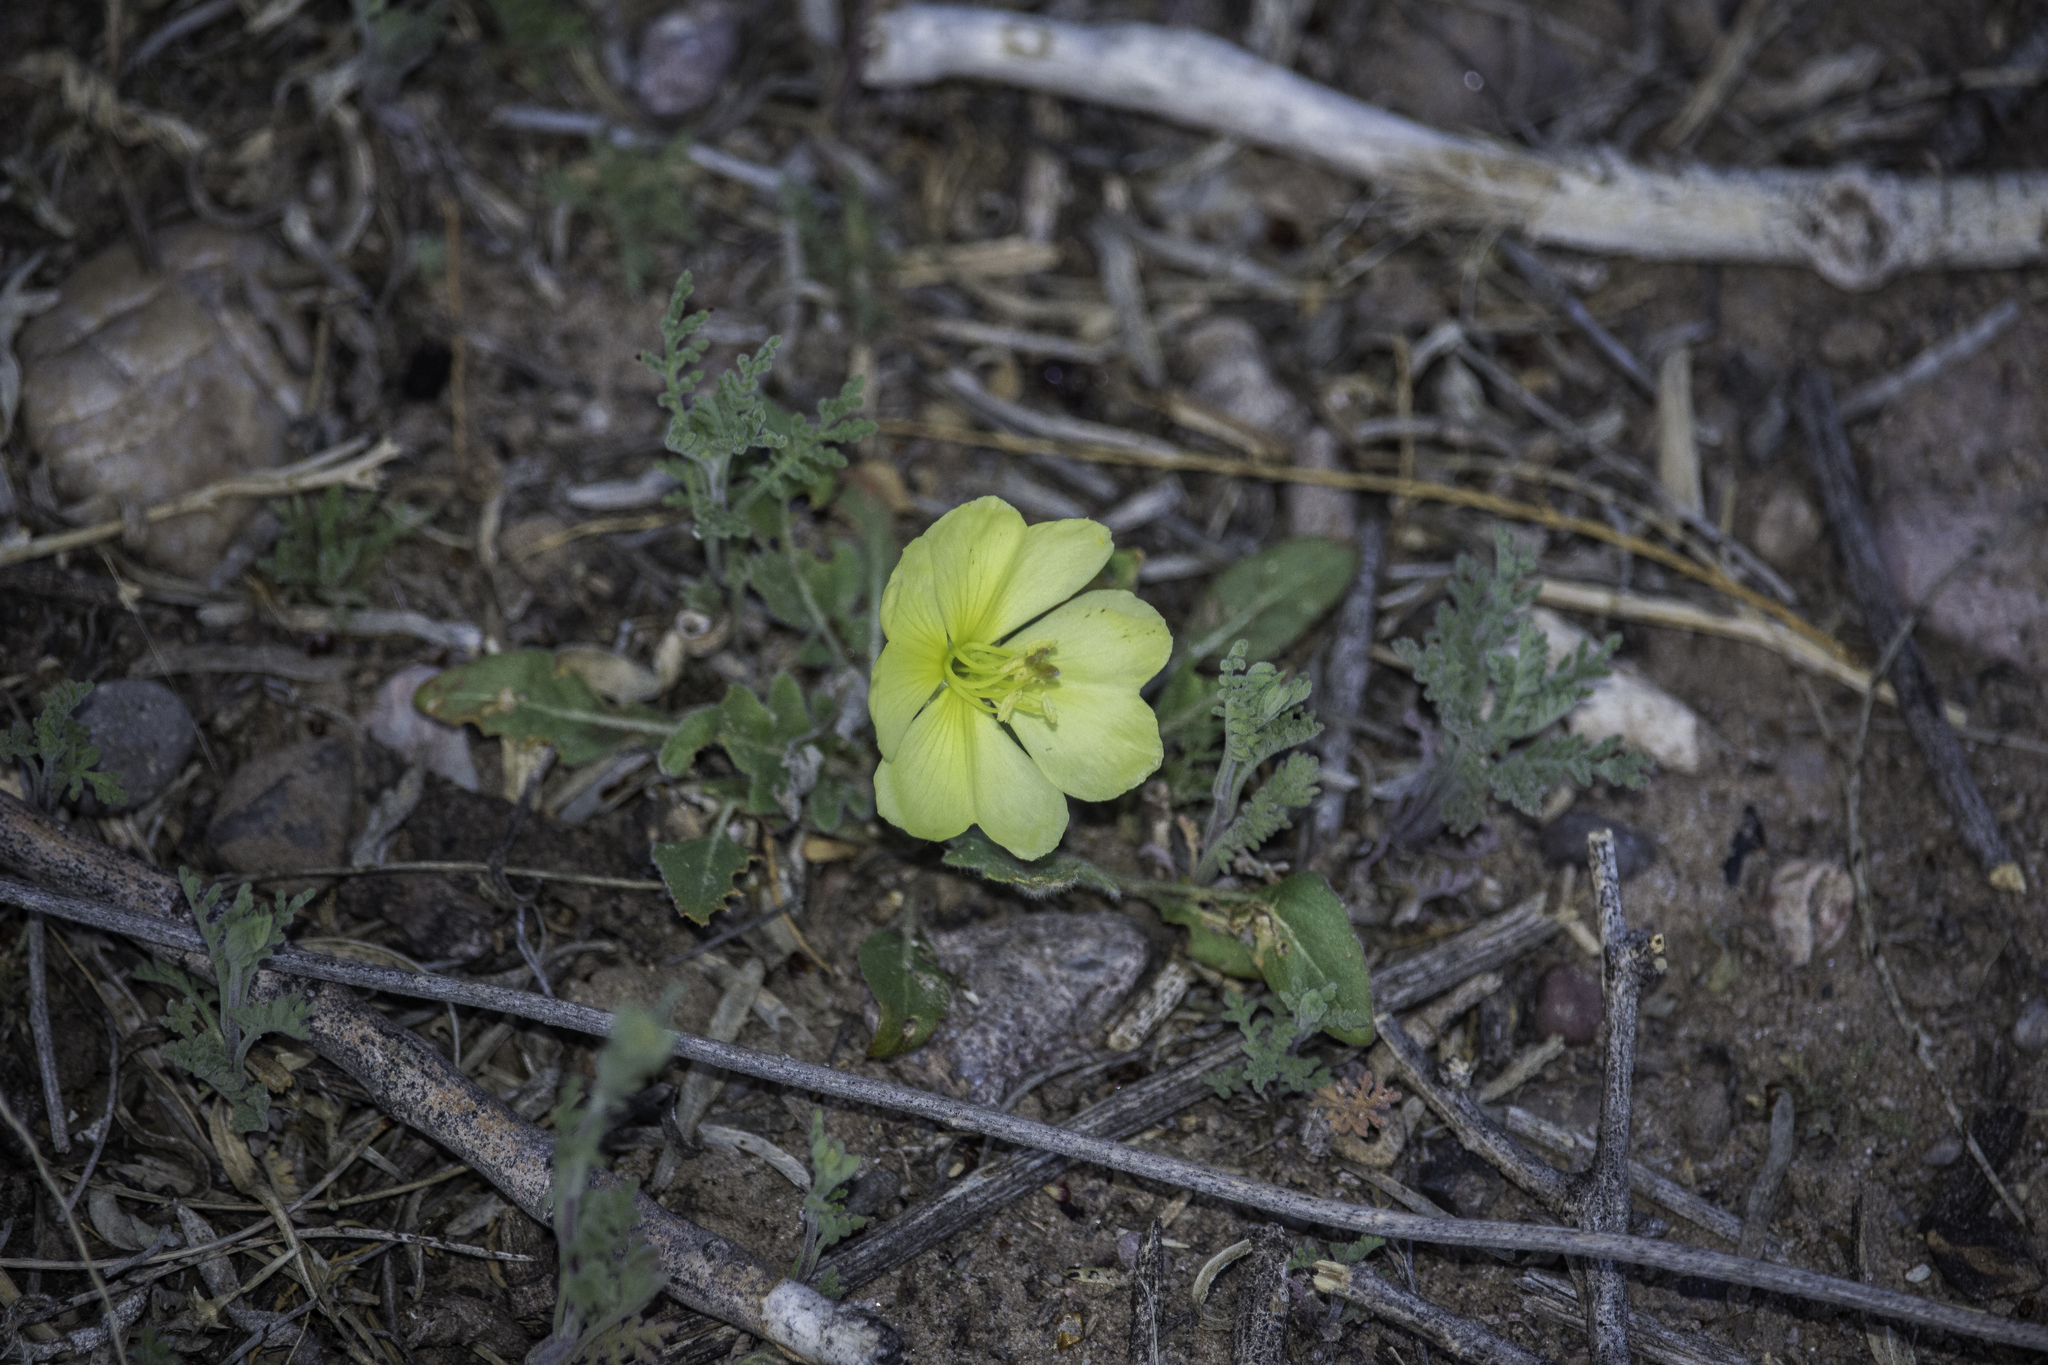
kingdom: Plantae
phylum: Tracheophyta
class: Magnoliopsida
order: Myrtales
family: Onagraceae
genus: Oenothera
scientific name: Oenothera primiveris
